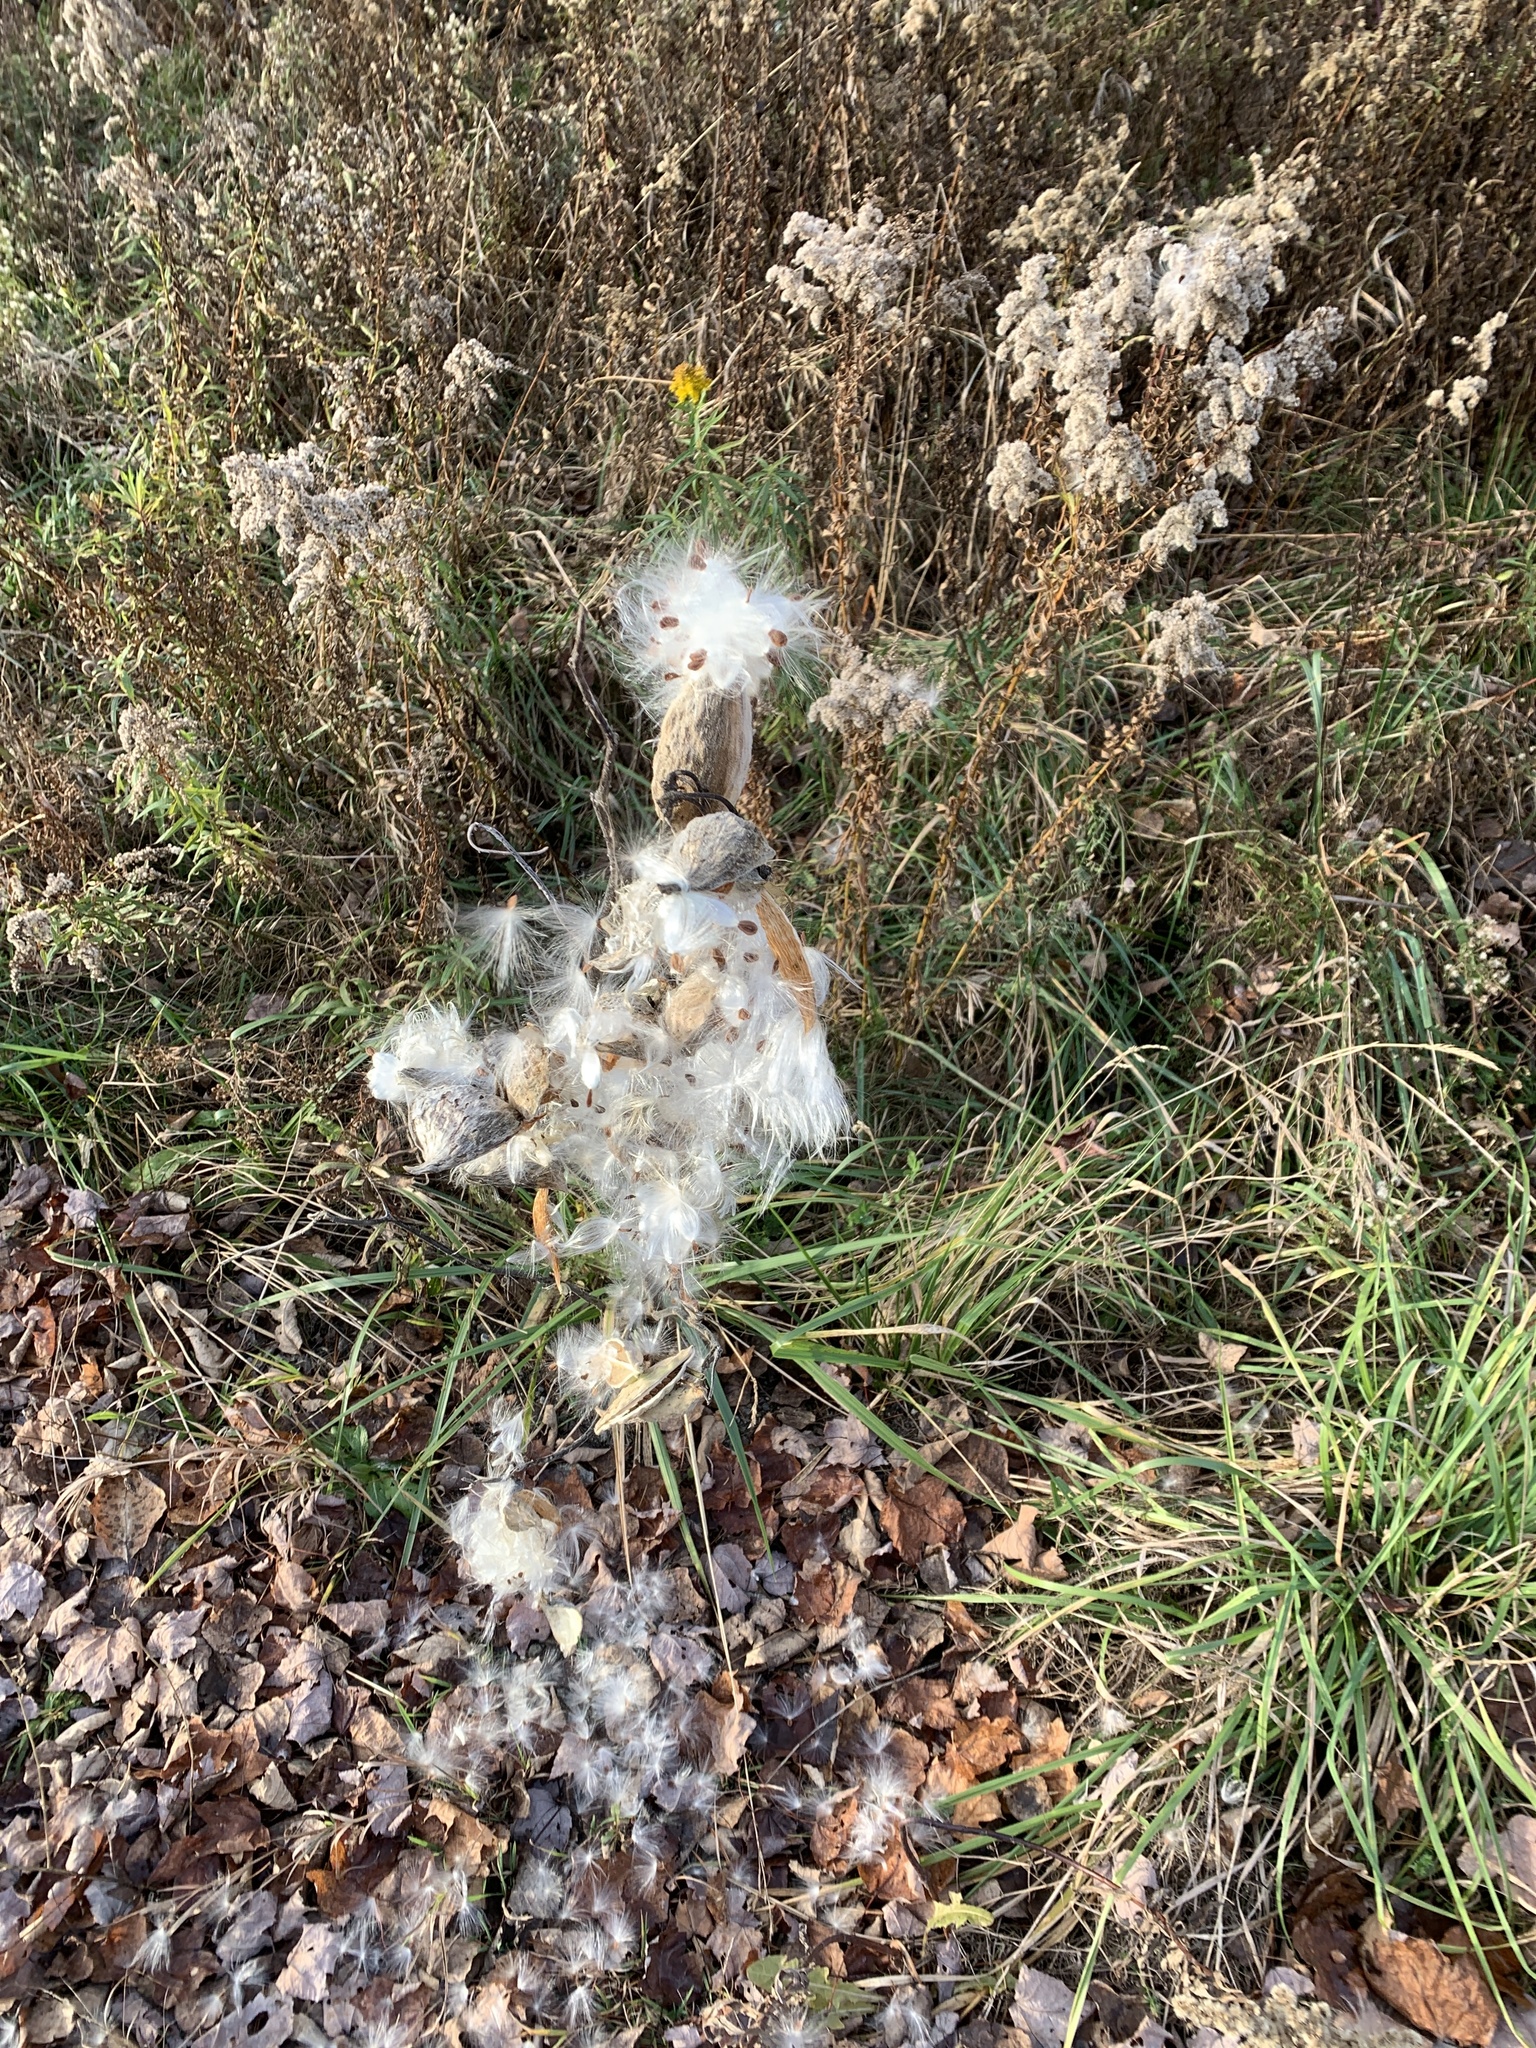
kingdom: Plantae
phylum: Tracheophyta
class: Magnoliopsida
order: Gentianales
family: Apocynaceae
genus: Asclepias
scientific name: Asclepias syriaca
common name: Common milkweed
